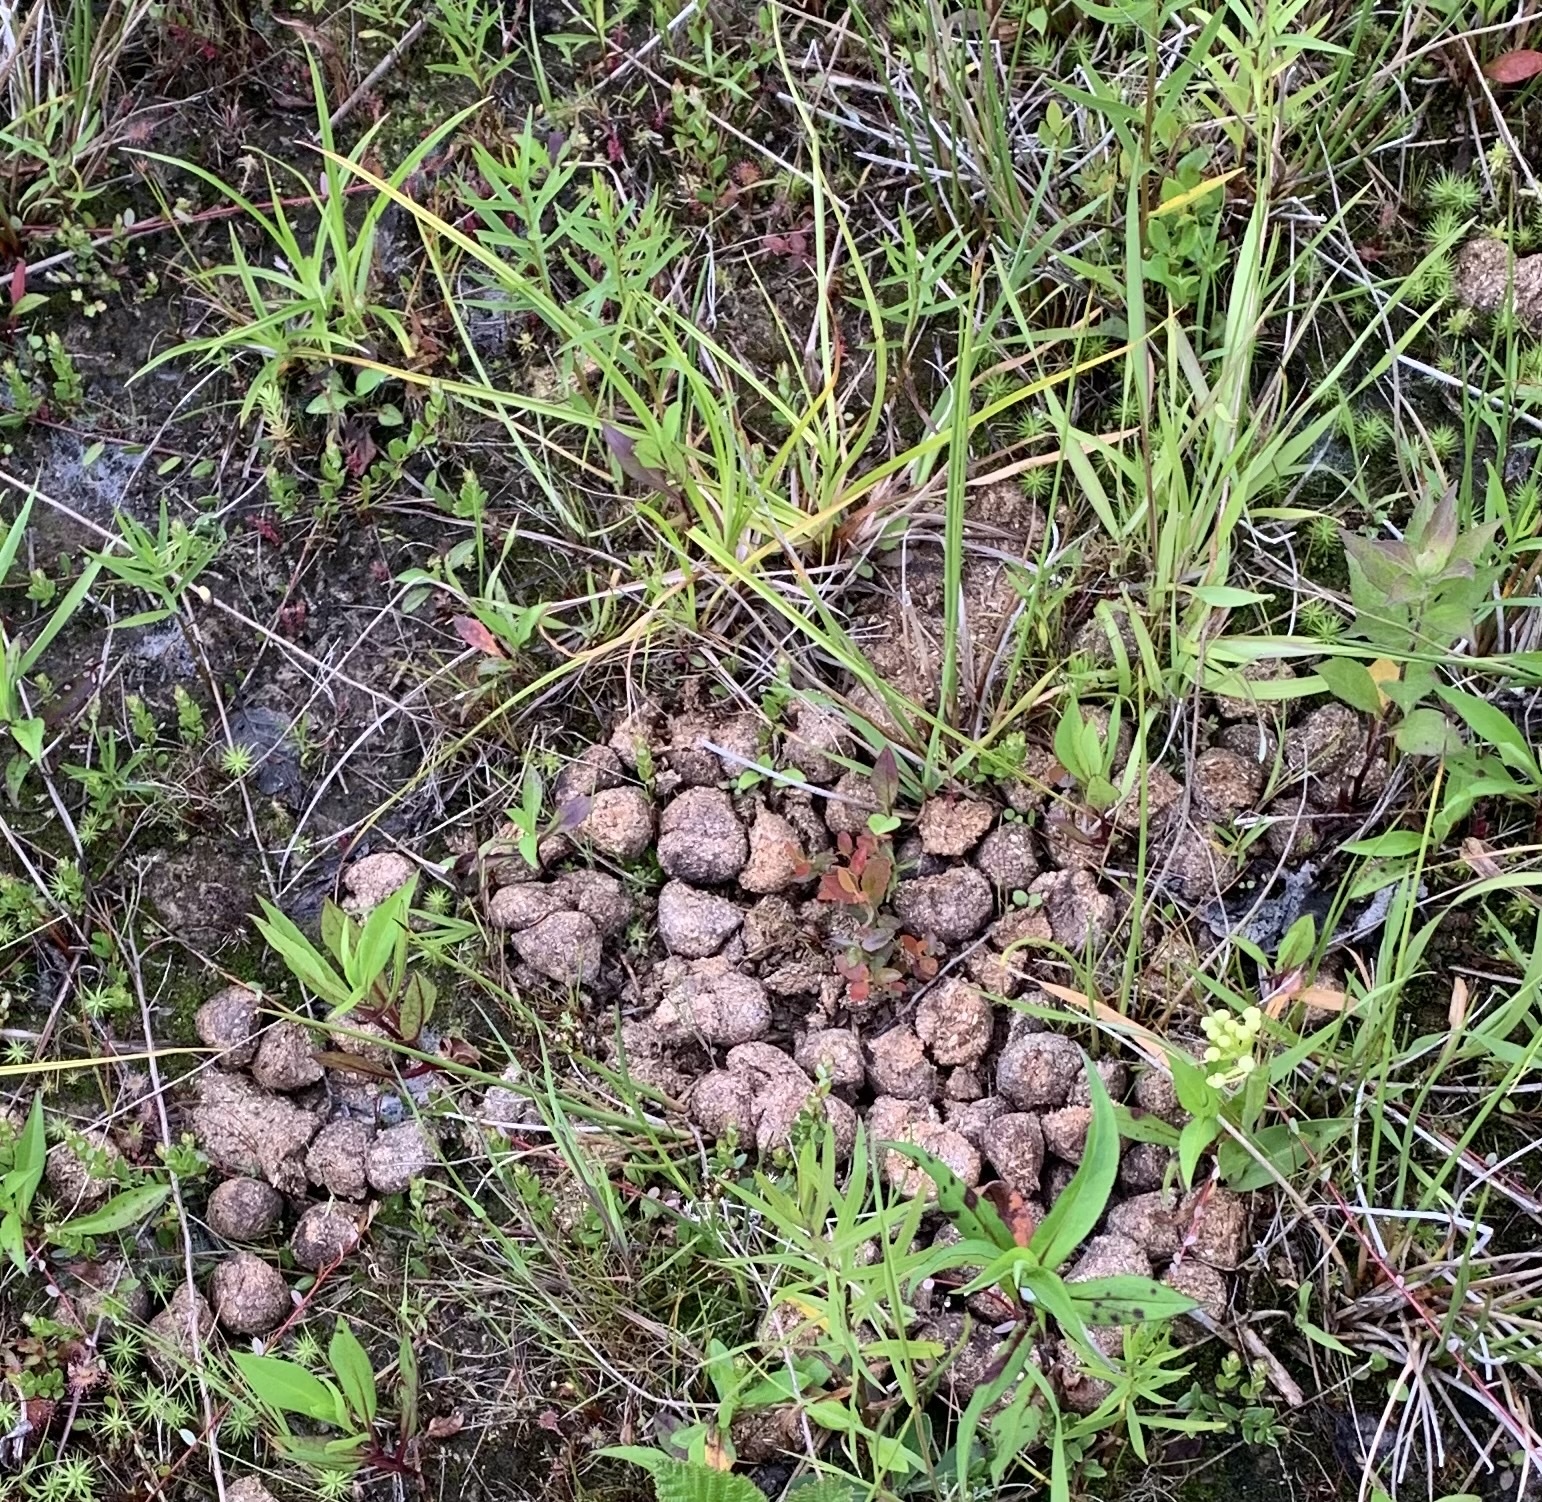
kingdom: Animalia
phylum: Chordata
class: Mammalia
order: Artiodactyla
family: Cervidae
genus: Alces
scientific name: Alces alces
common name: Moose
